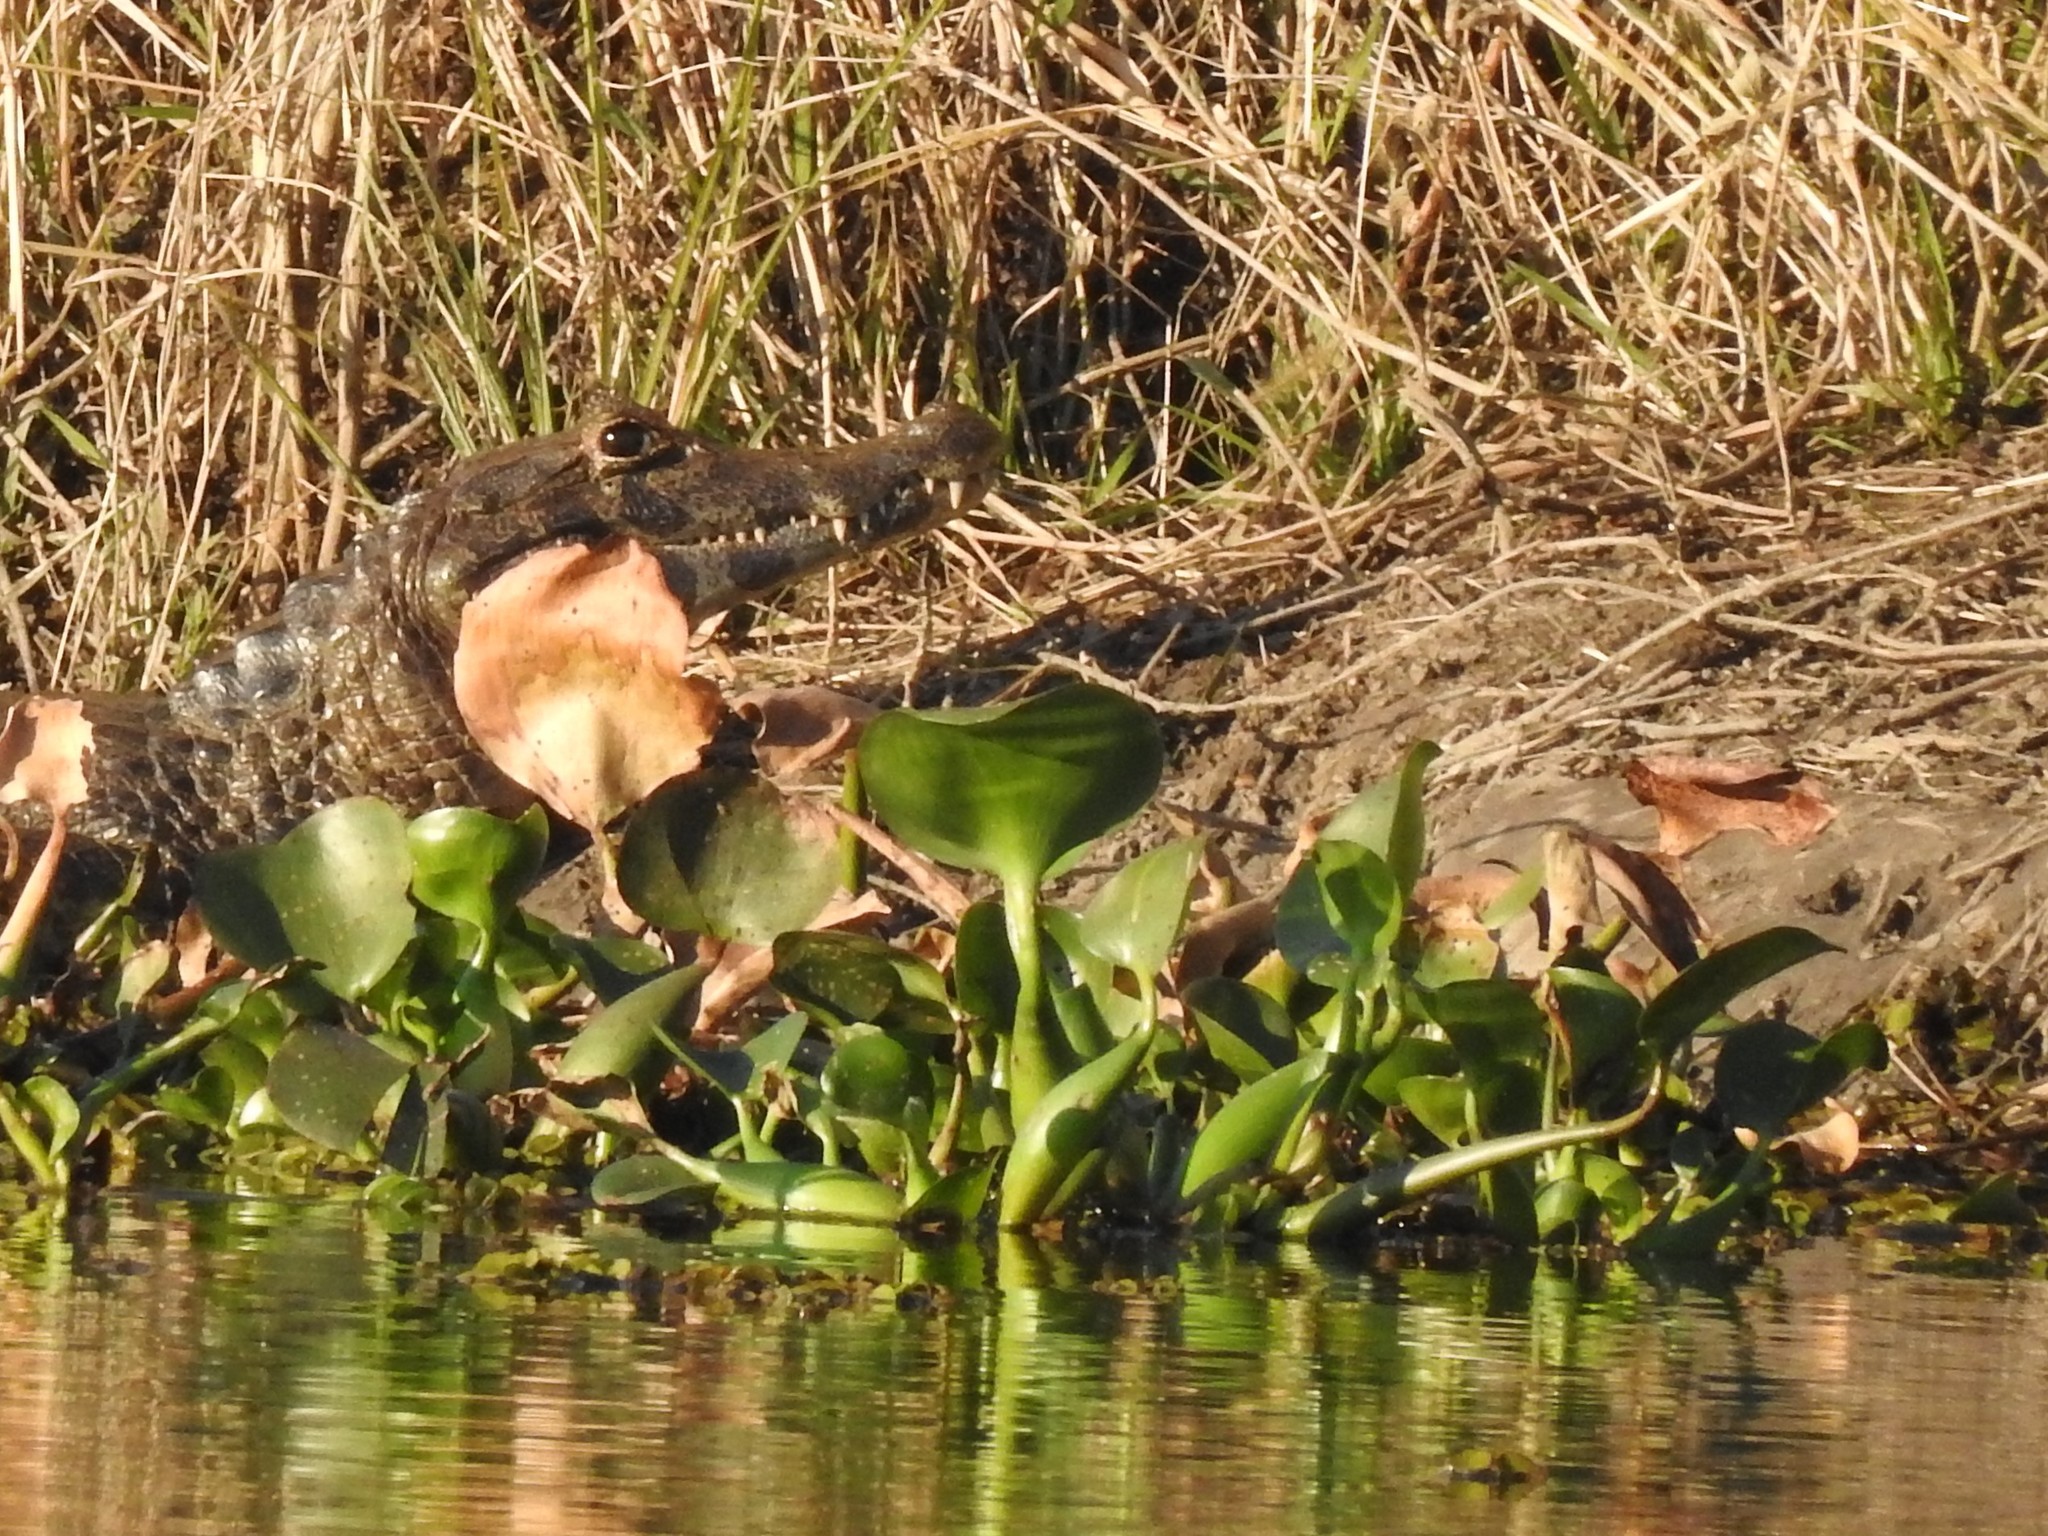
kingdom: Plantae
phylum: Tracheophyta
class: Liliopsida
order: Commelinales
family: Pontederiaceae
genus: Pontederia
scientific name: Pontederia crassipes
